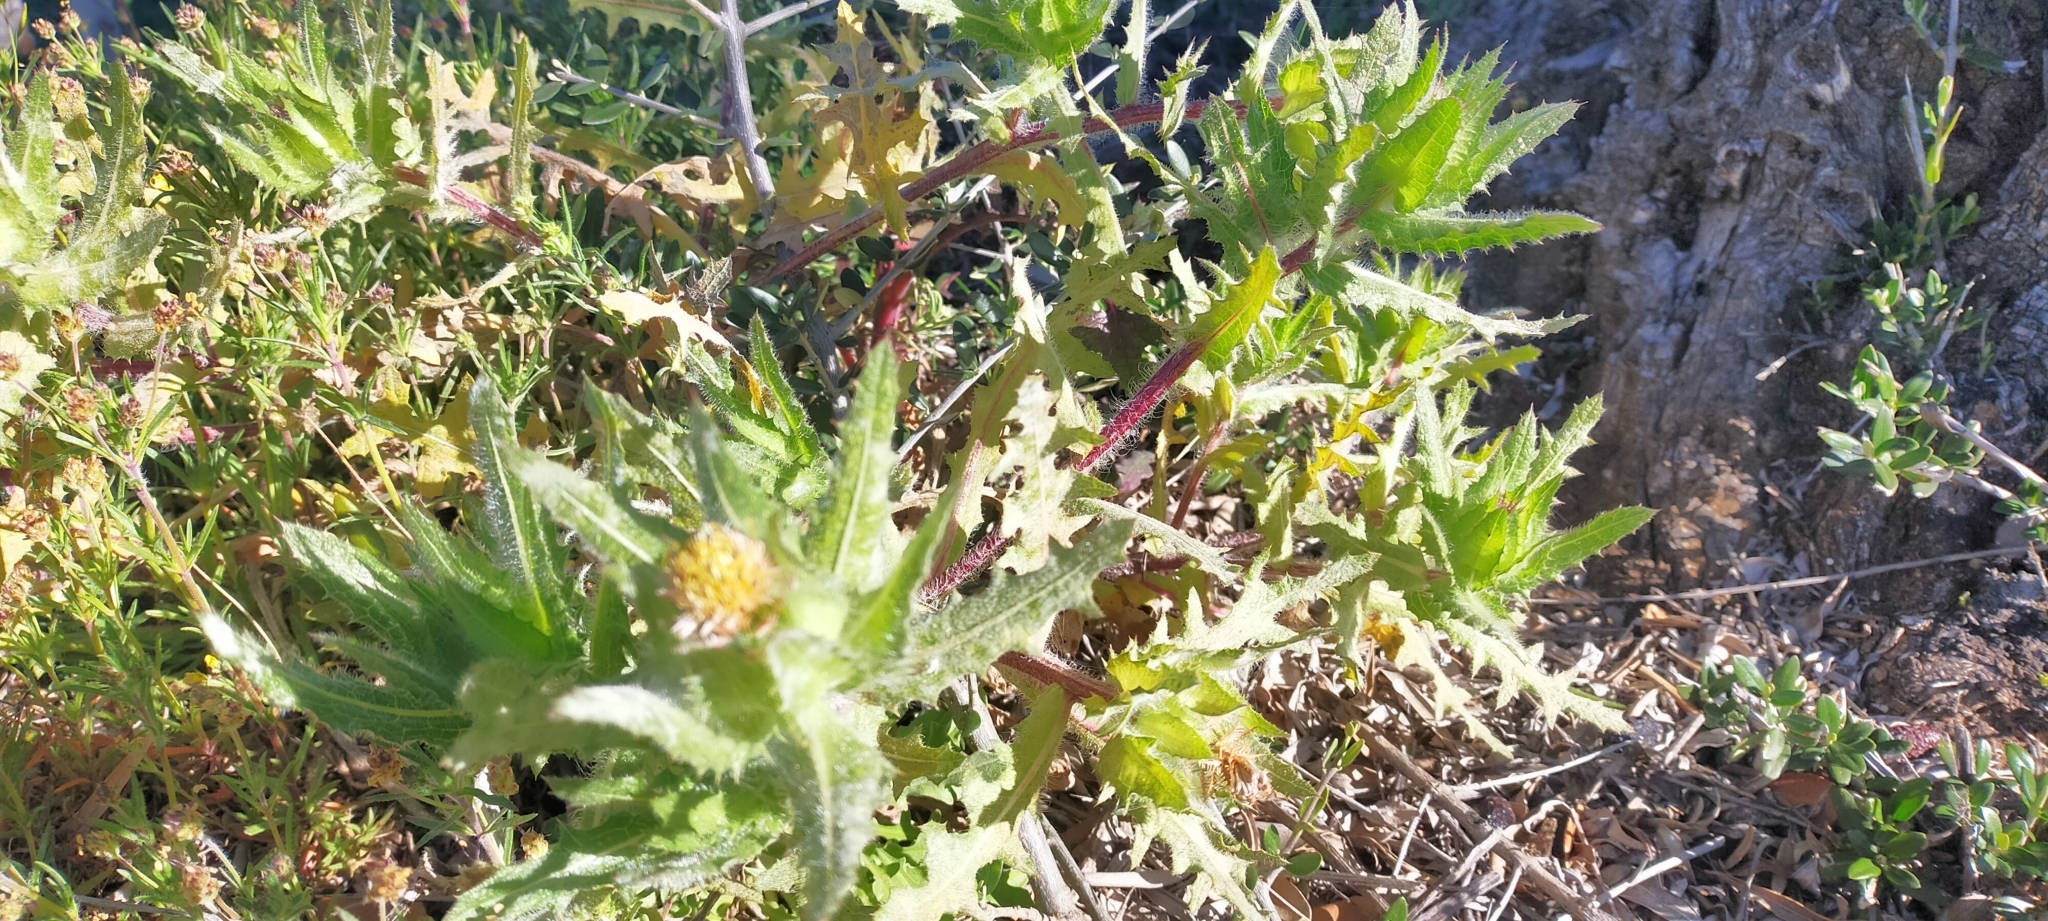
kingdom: Plantae
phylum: Tracheophyta
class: Magnoliopsida
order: Asterales
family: Asteraceae
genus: Centaurea
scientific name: Centaurea benedicta
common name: Blessed thistle
